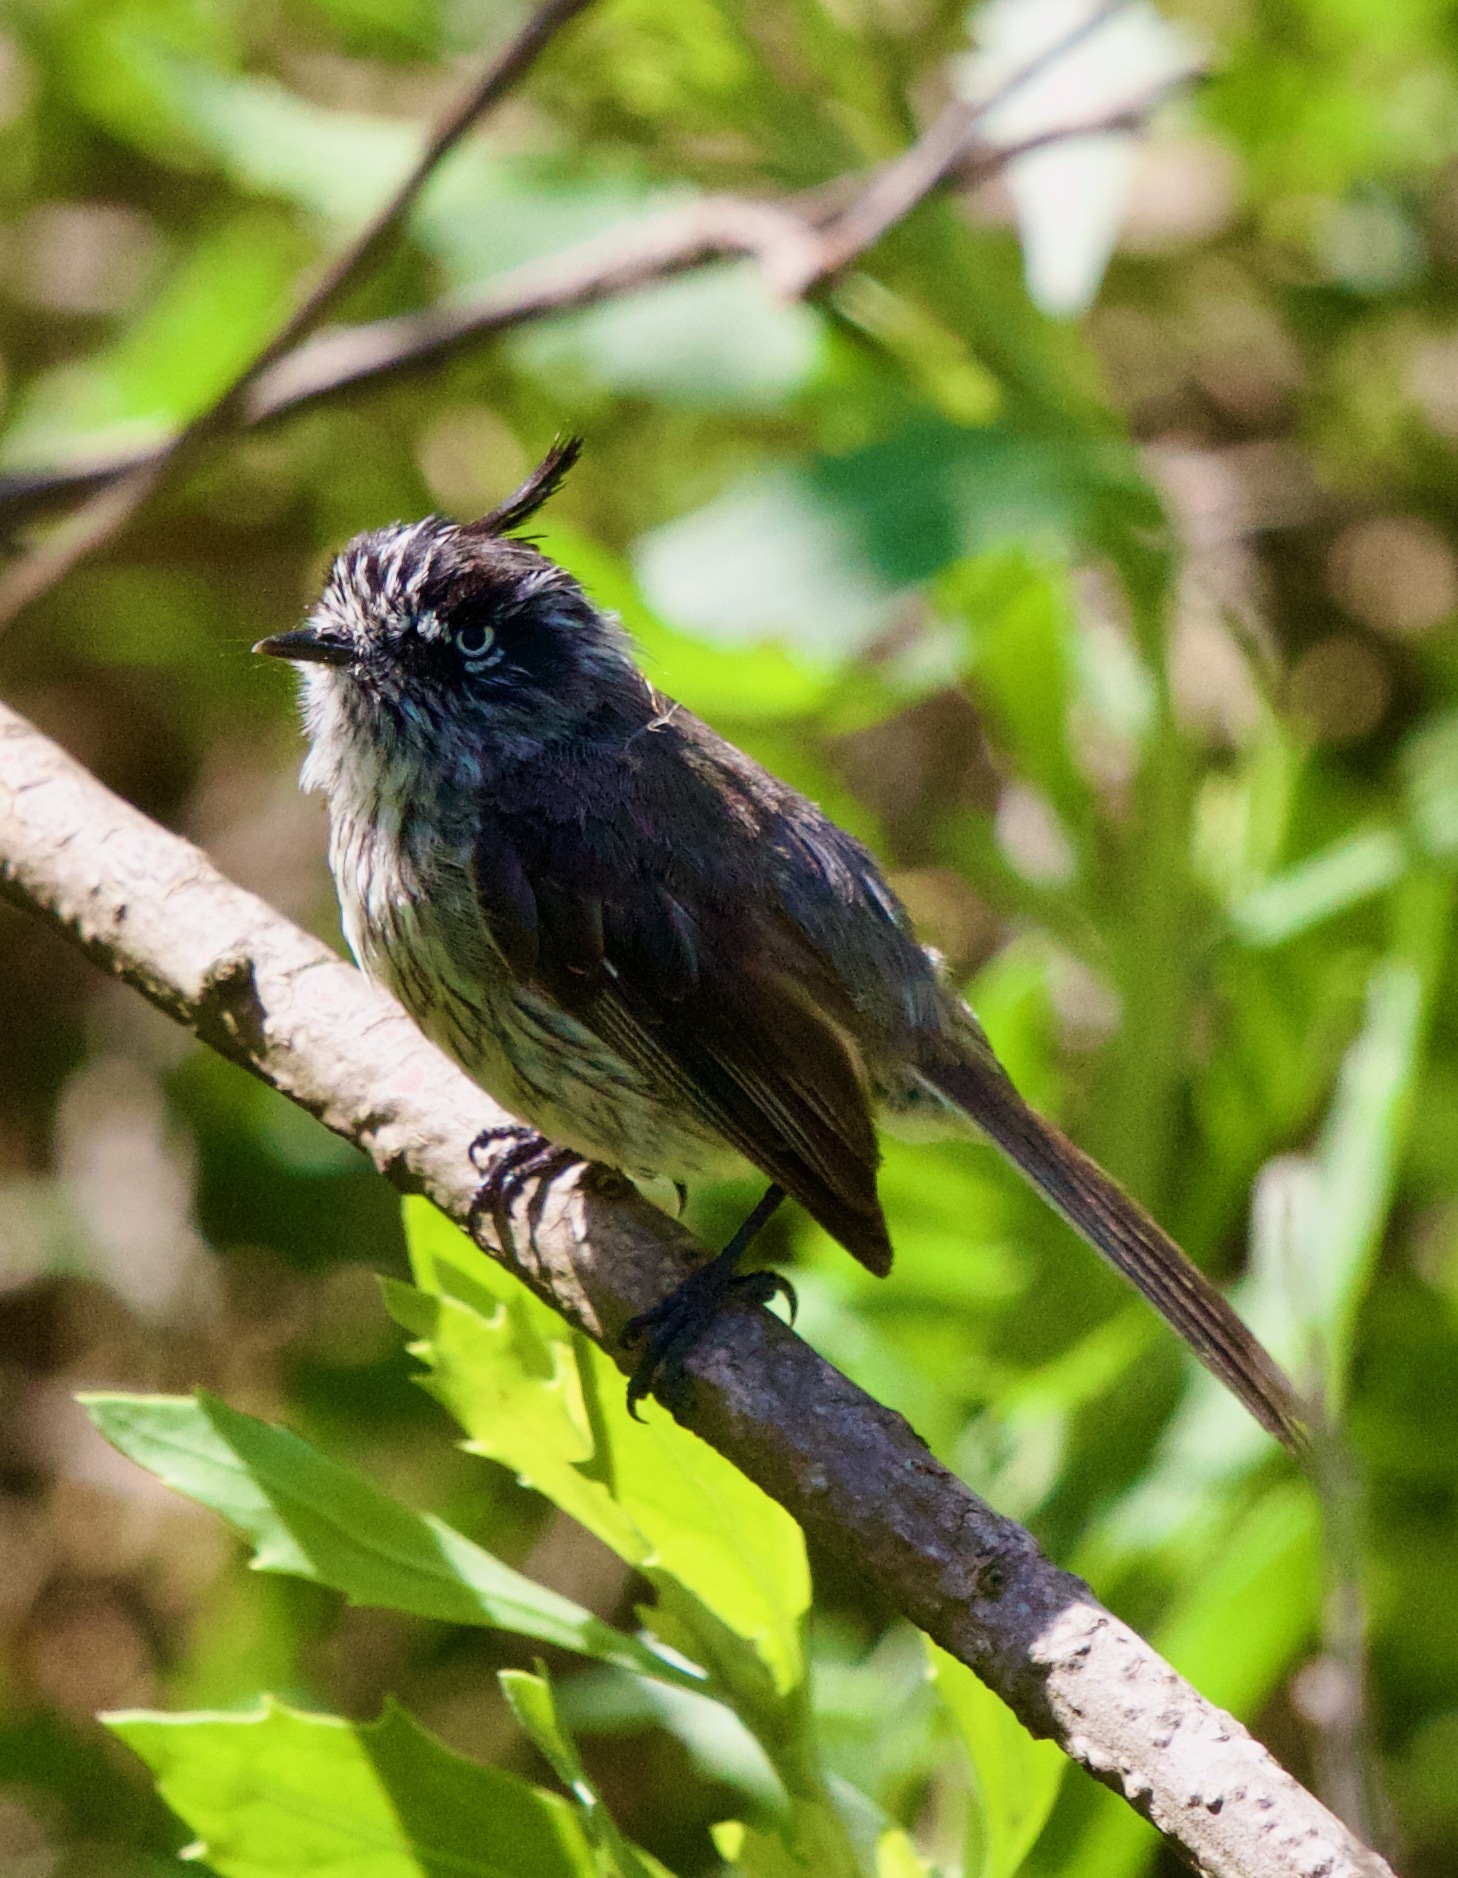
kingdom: Animalia
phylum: Chordata
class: Aves
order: Passeriformes
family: Tyrannidae
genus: Anairetes
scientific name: Anairetes parulus
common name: Tufted tit-tyrant
